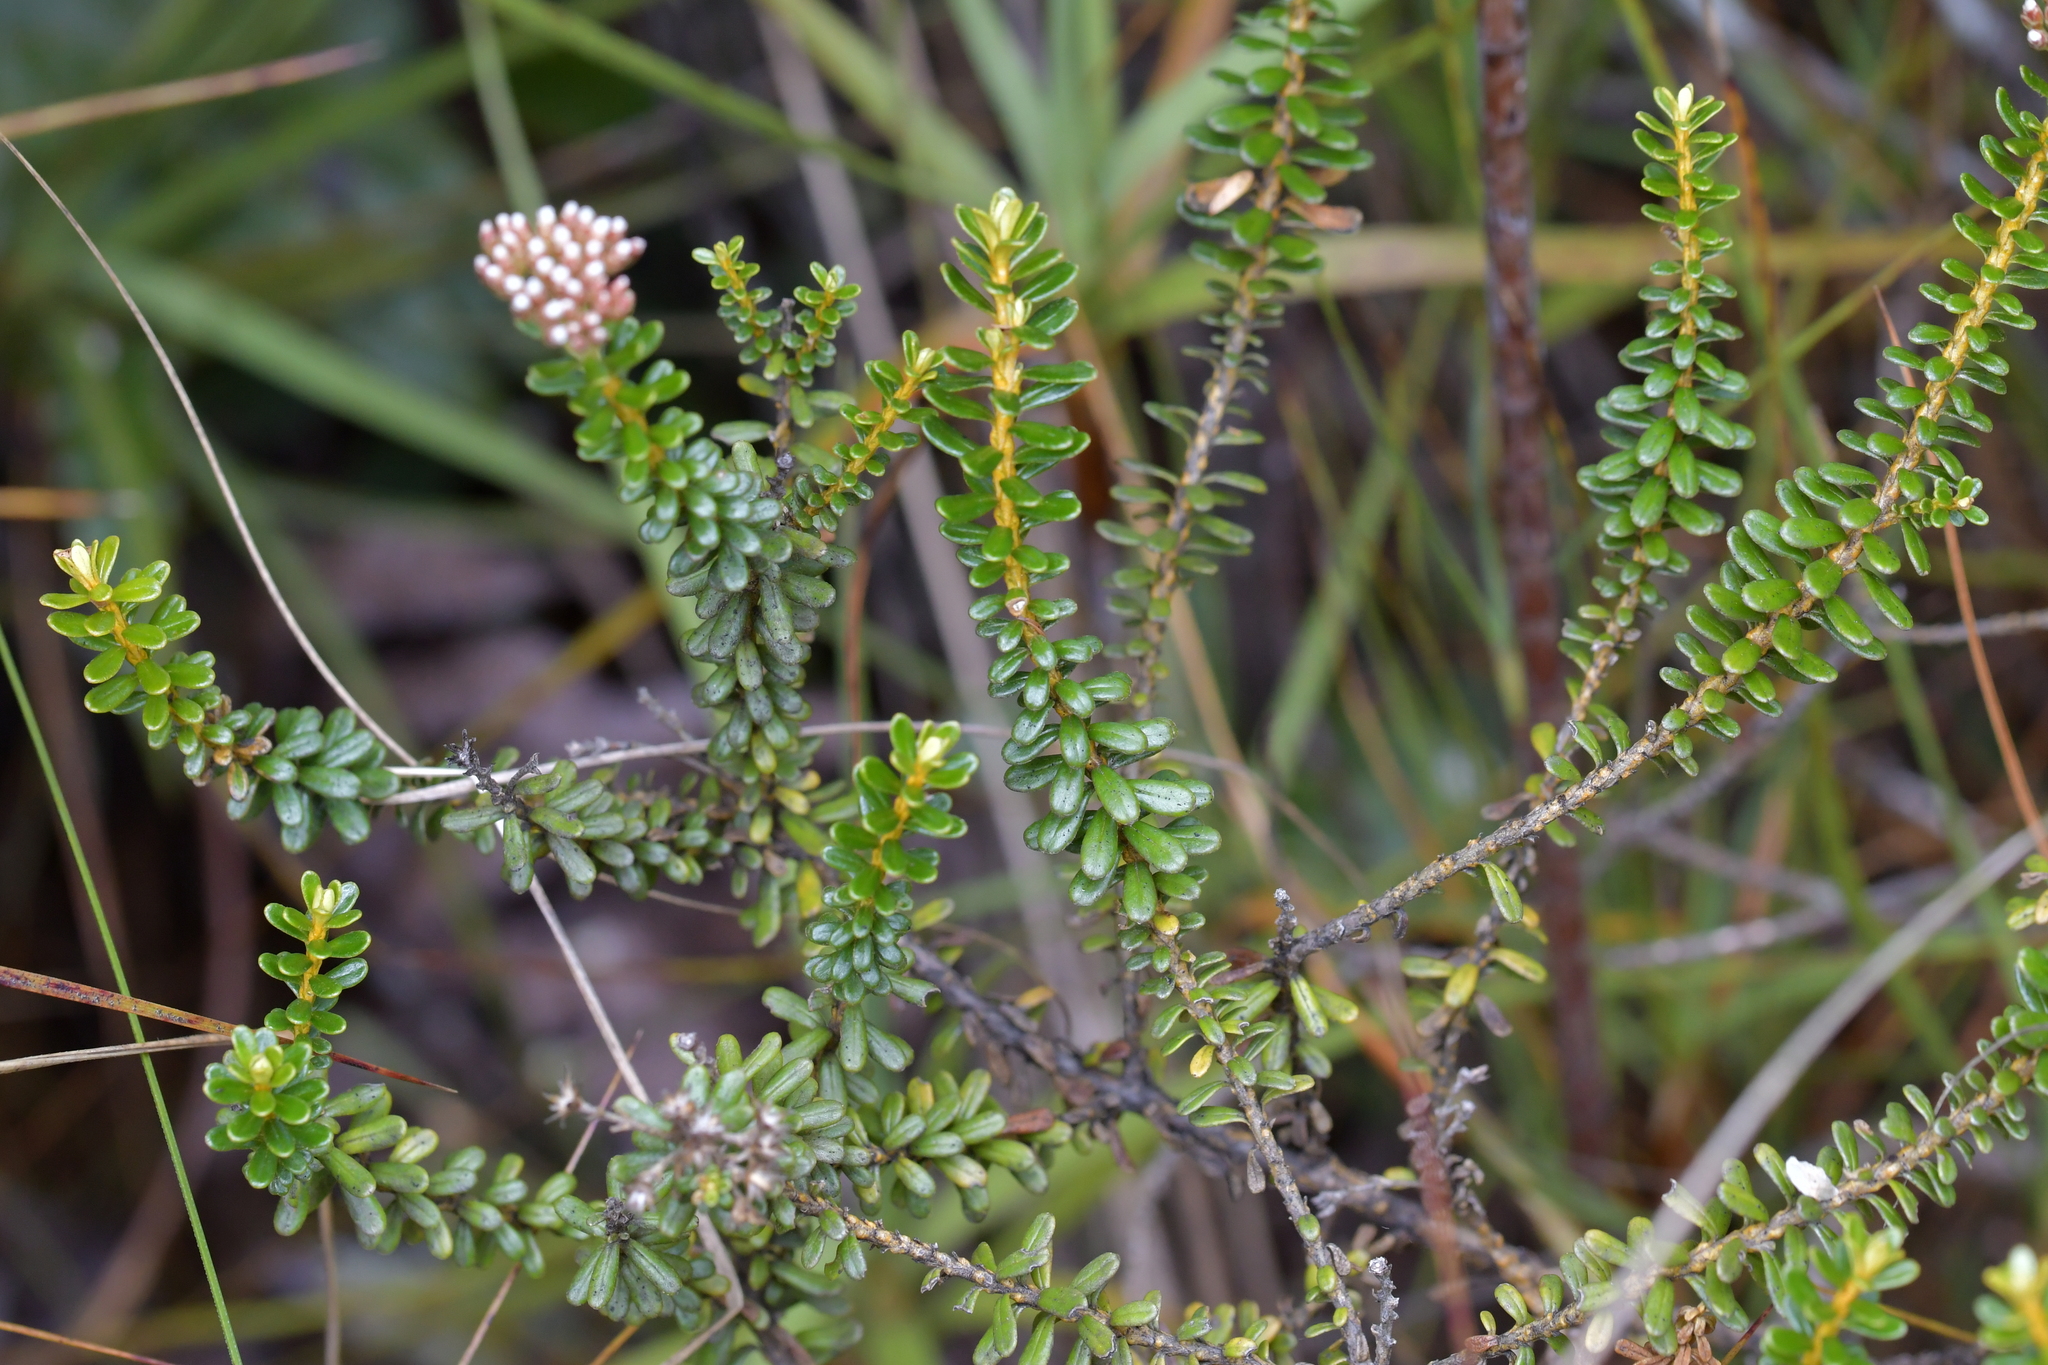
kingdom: Plantae
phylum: Tracheophyta
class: Magnoliopsida
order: Asterales
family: Asteraceae
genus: Ozothamnus
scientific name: Ozothamnus leptophyllus
